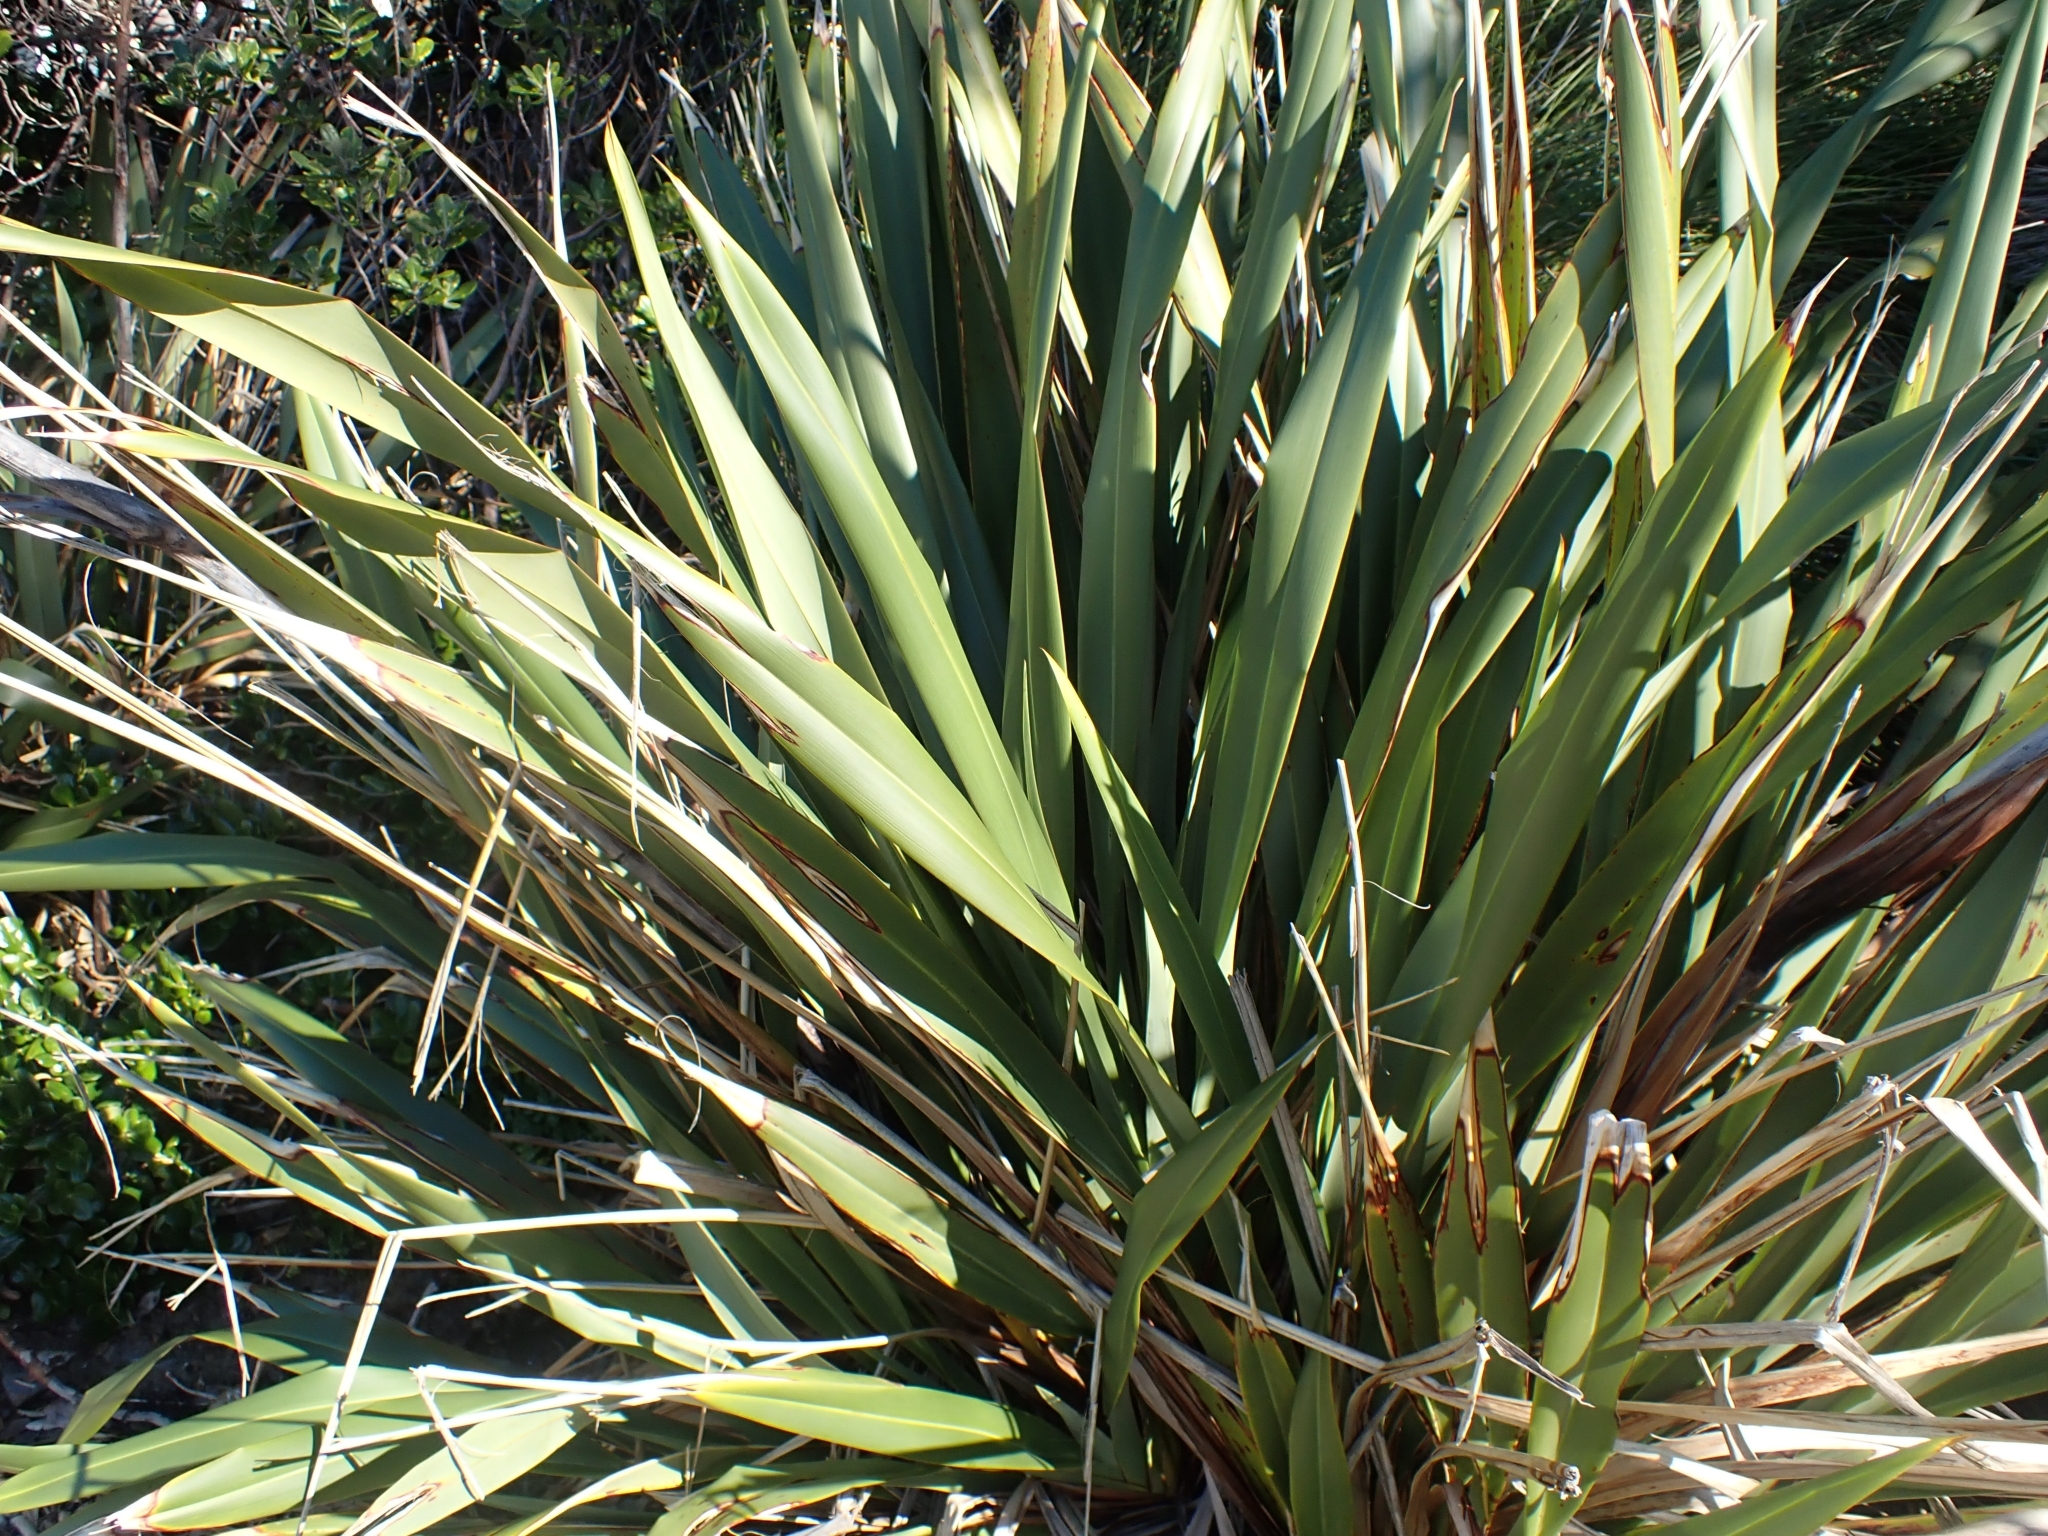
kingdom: Plantae
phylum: Tracheophyta
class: Liliopsida
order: Asparagales
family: Asphodelaceae
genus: Phormium
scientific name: Phormium tenax
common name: New zealand flax
